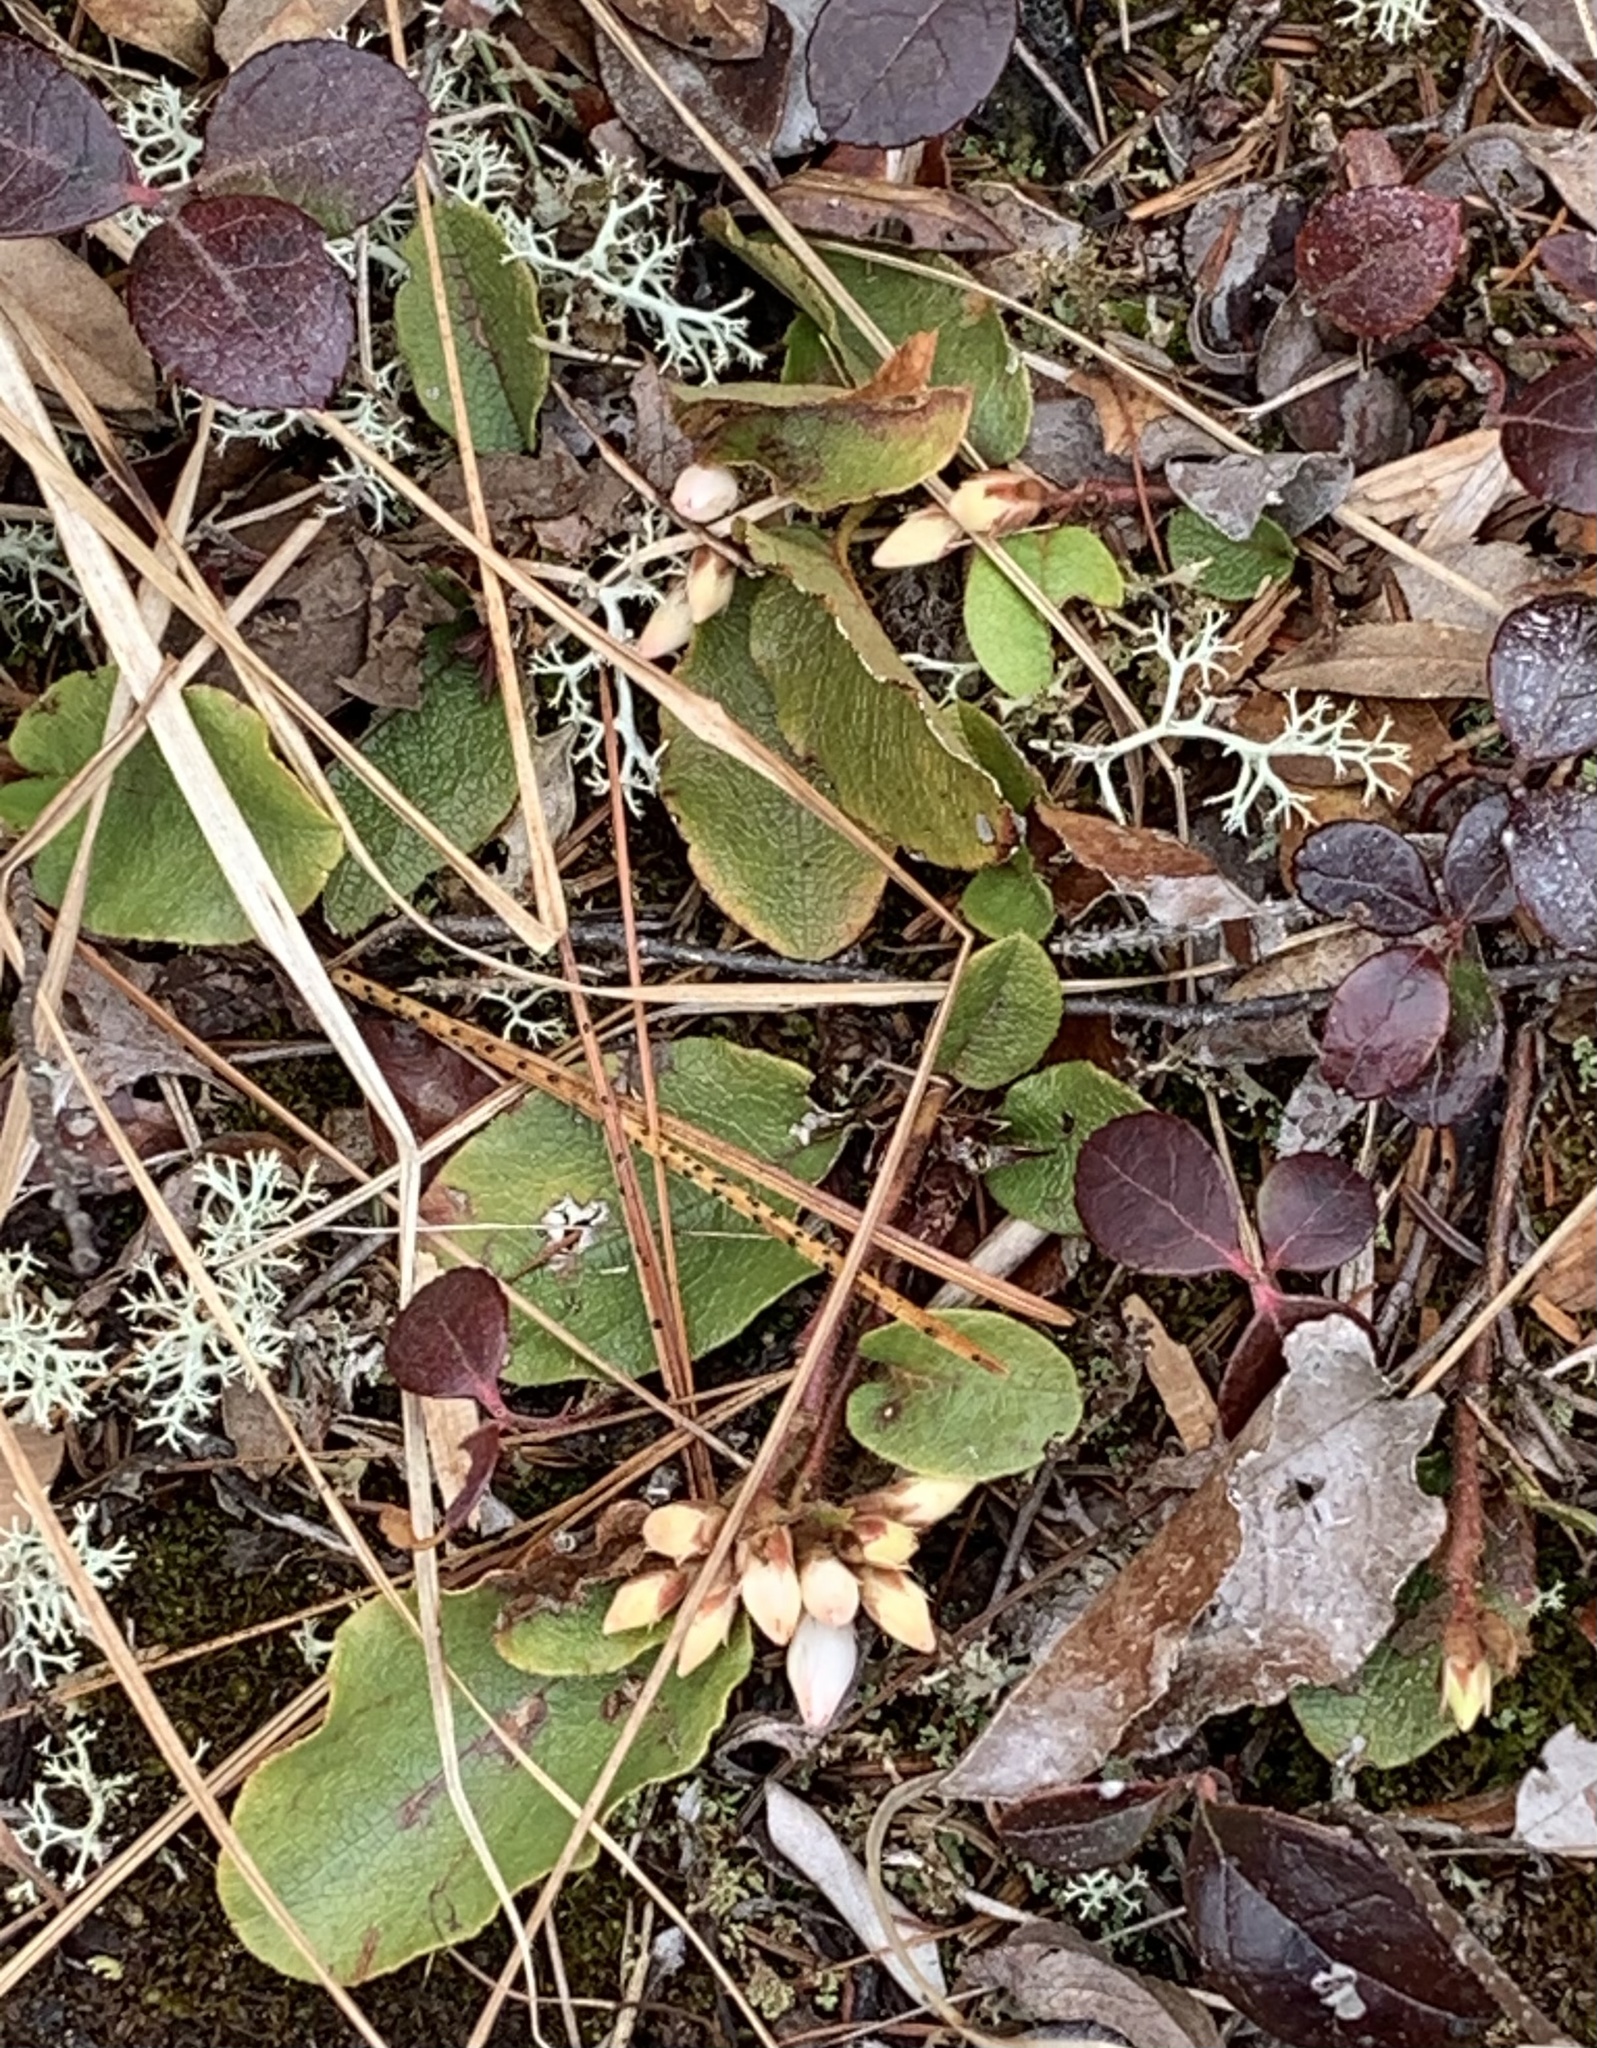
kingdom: Plantae
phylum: Tracheophyta
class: Magnoliopsida
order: Ericales
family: Ericaceae
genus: Epigaea
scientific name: Epigaea repens
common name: Gravelroot
